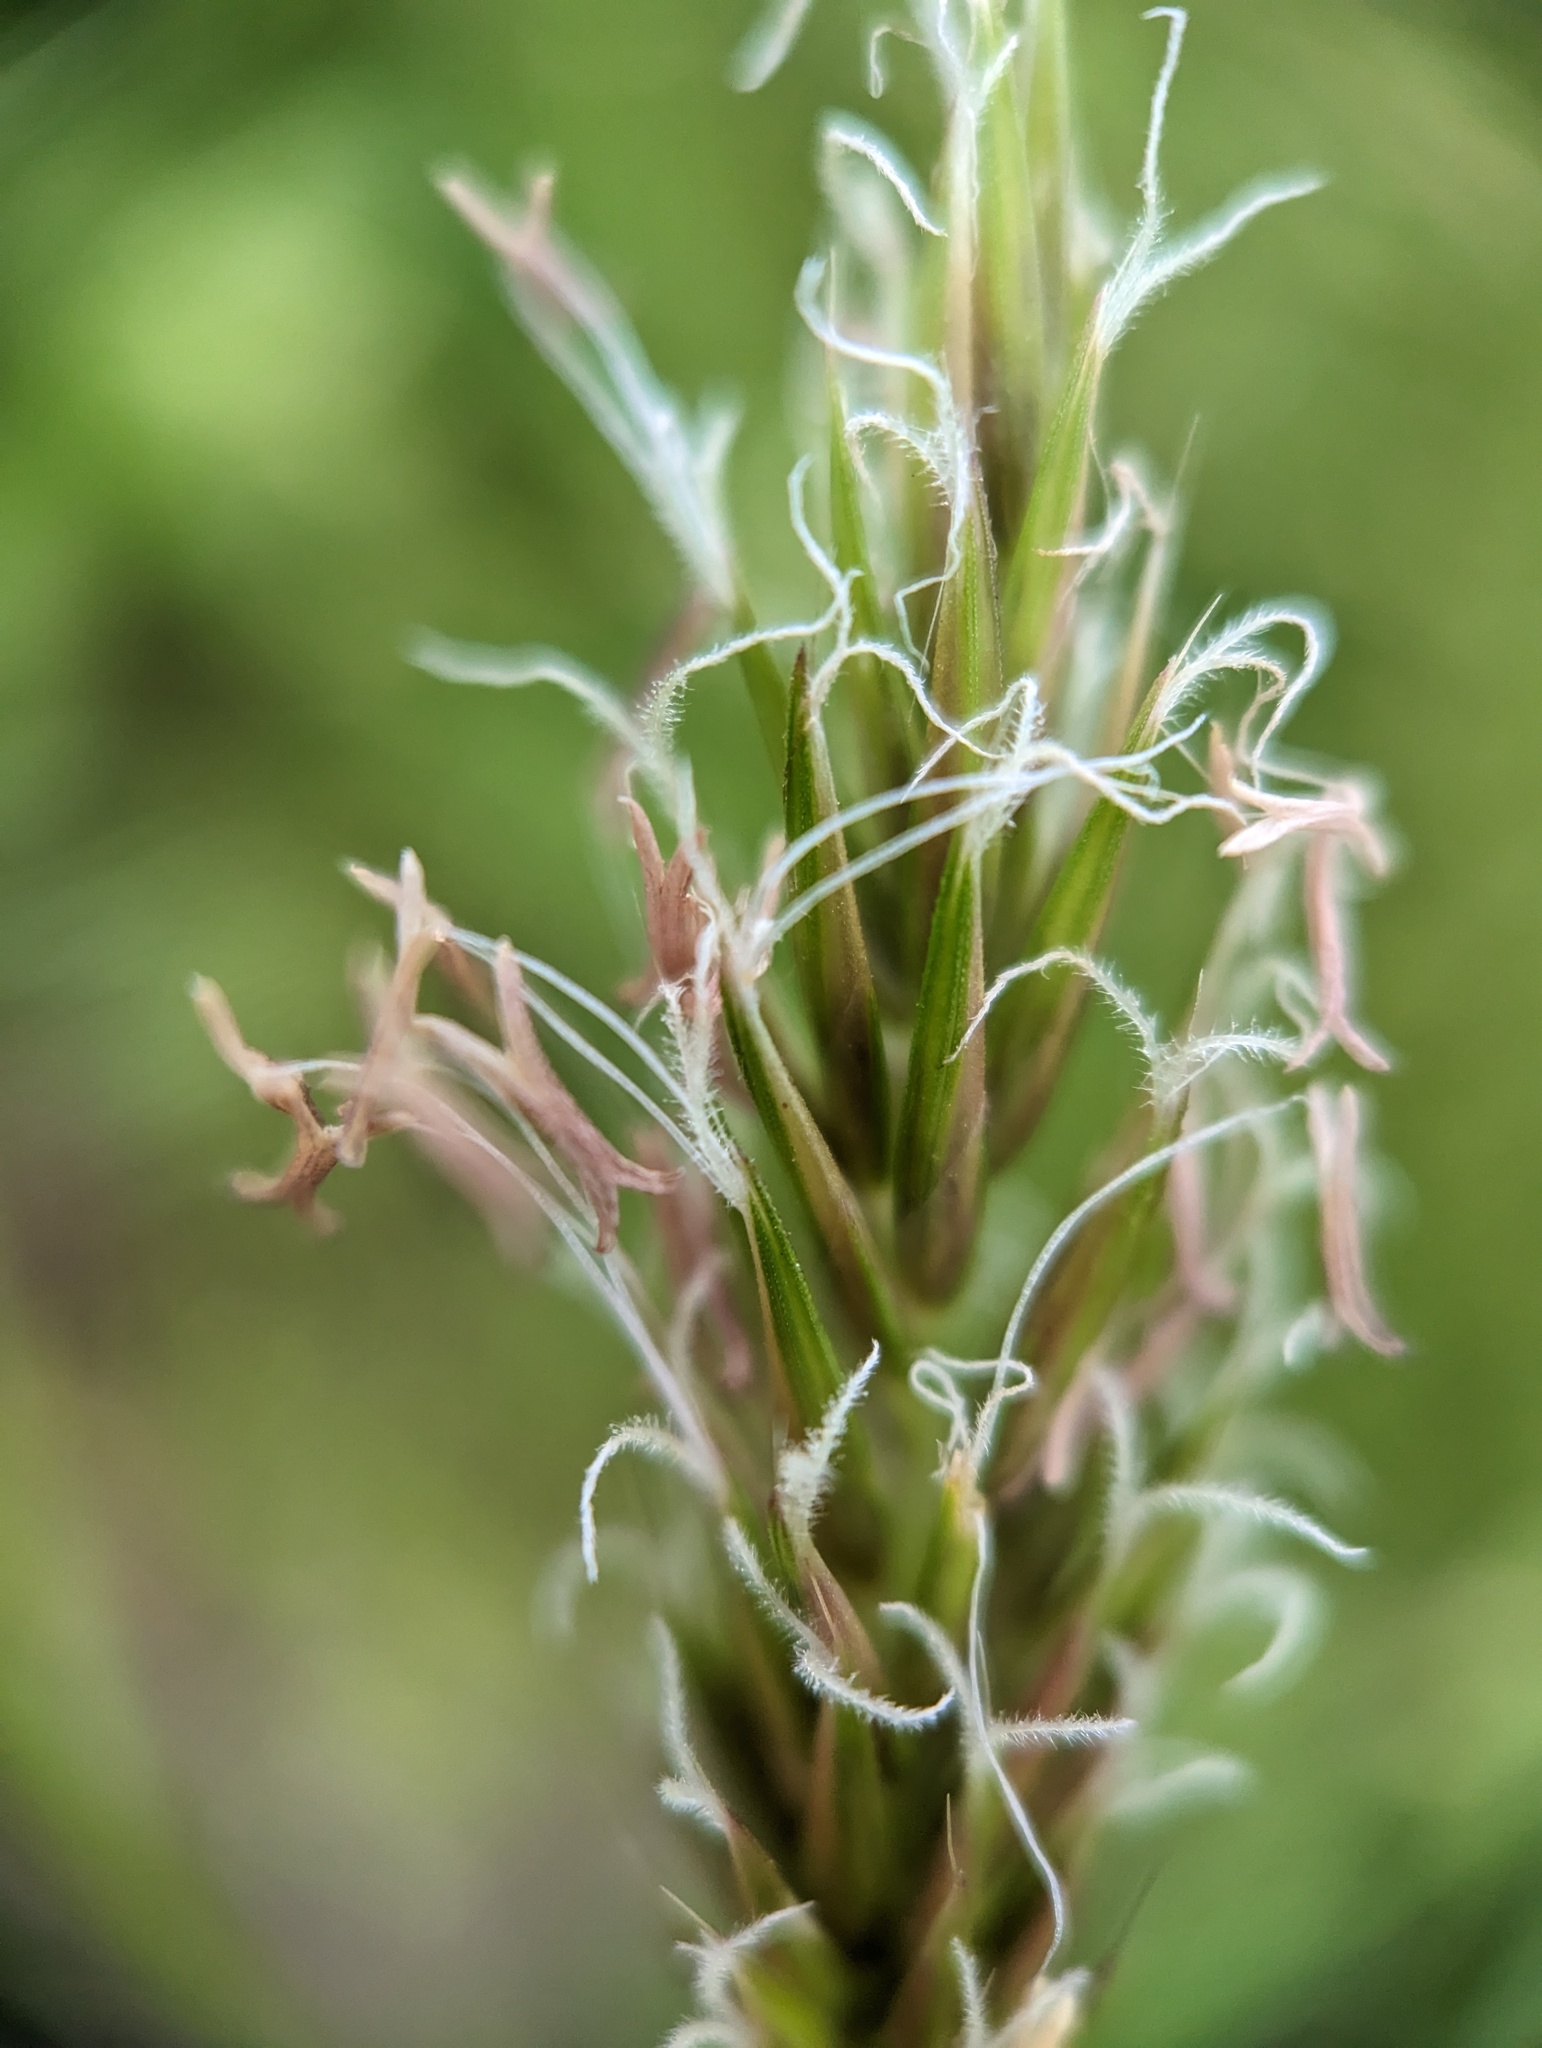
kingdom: Plantae
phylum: Tracheophyta
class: Liliopsida
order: Poales
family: Poaceae
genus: Anthoxanthum
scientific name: Anthoxanthum odoratum
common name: Sweet vernalgrass
